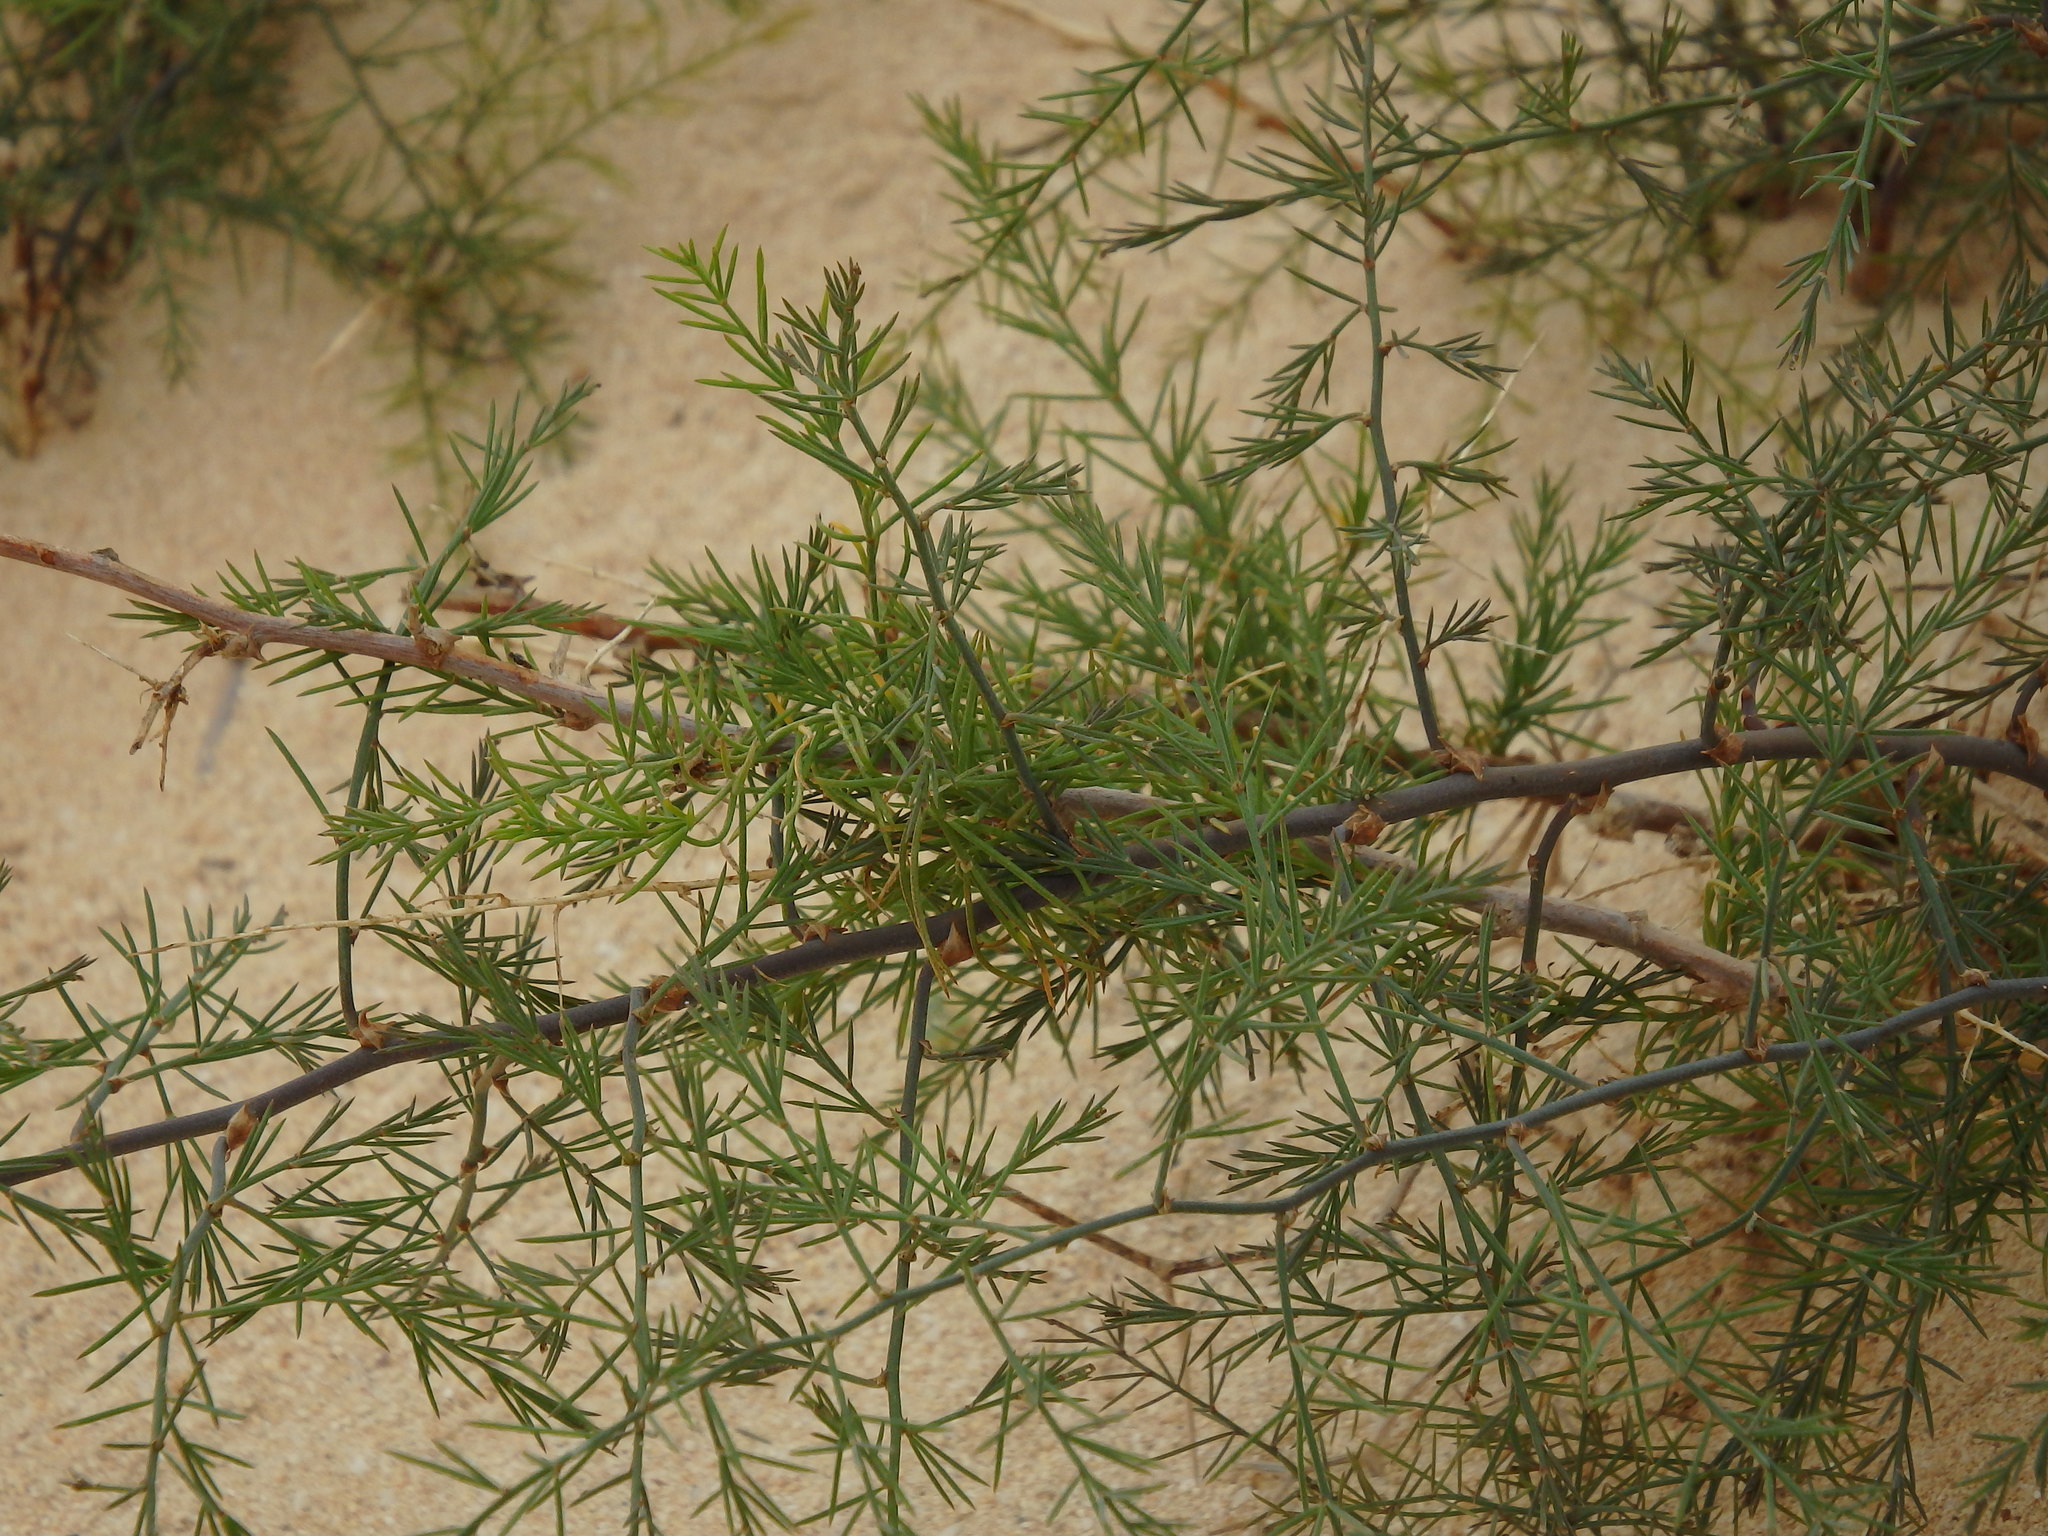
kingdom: Plantae
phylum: Tracheophyta
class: Liliopsida
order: Asparagales
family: Asparagaceae
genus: Asparagus
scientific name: Asparagus squarrosus
